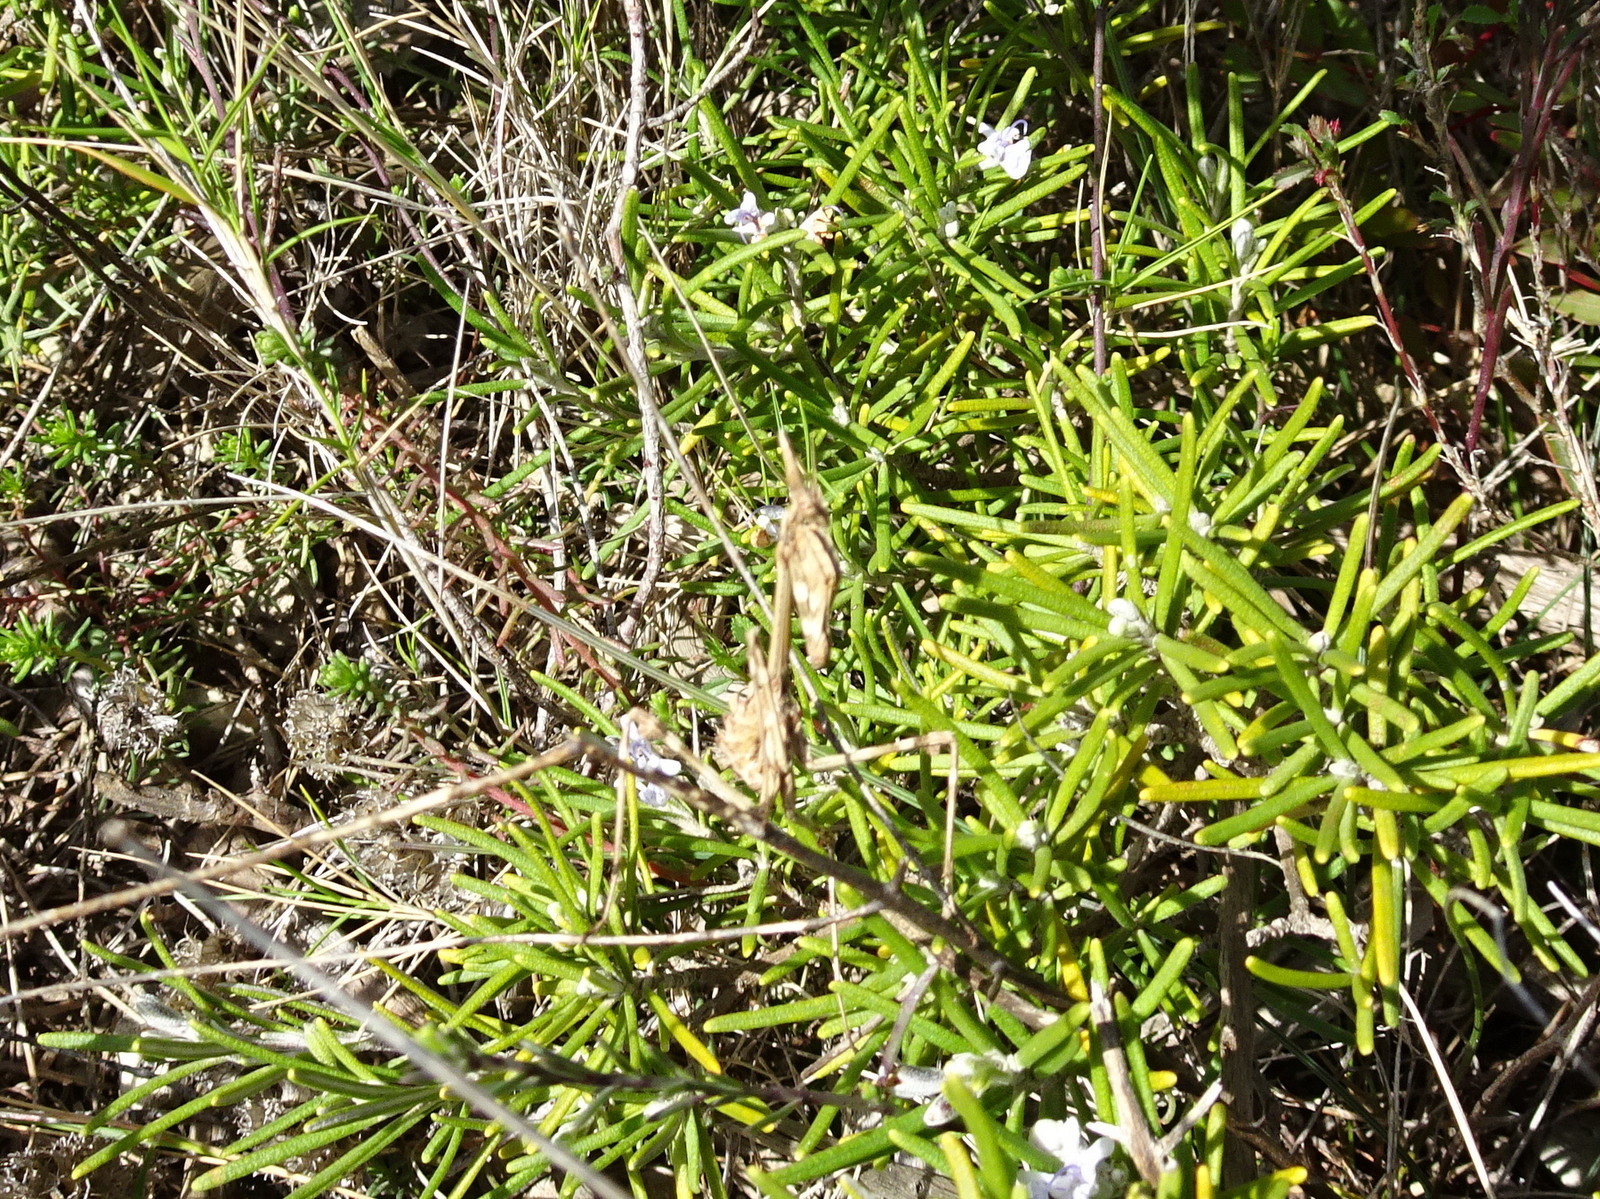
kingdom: Animalia
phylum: Arthropoda
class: Insecta
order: Mantodea
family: Empusidae
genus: Empusa
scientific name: Empusa pennata
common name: Conehead mantis
